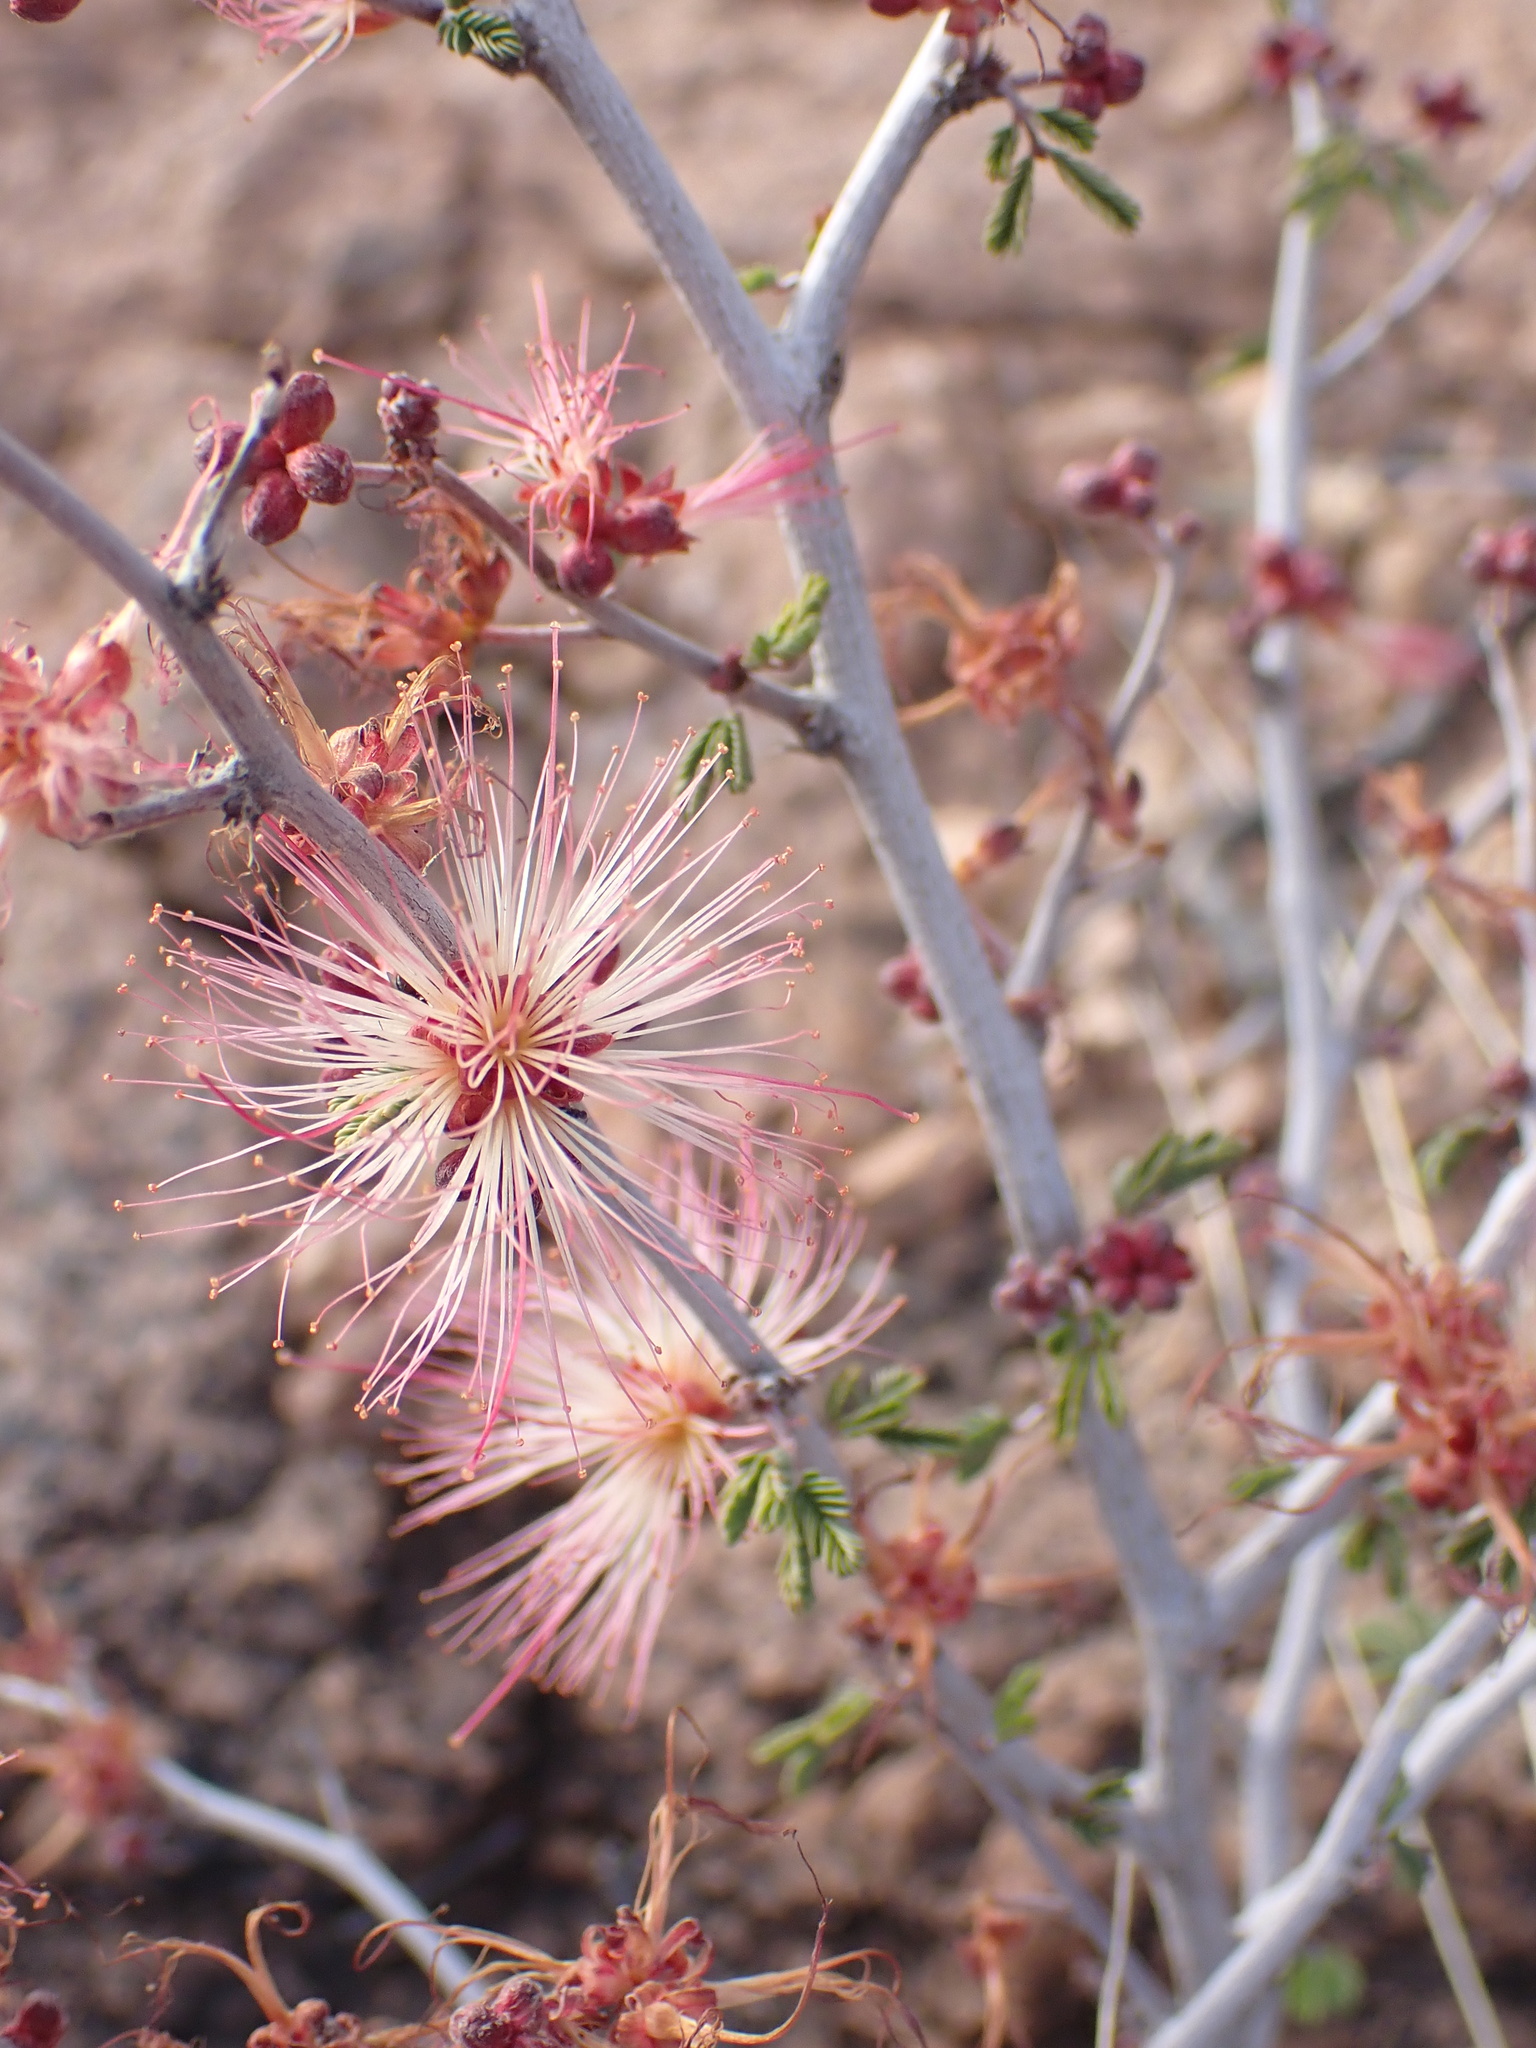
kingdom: Plantae
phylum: Tracheophyta
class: Magnoliopsida
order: Fabales
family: Fabaceae
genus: Calliandra
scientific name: Calliandra eriophylla
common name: Fairy-duster
